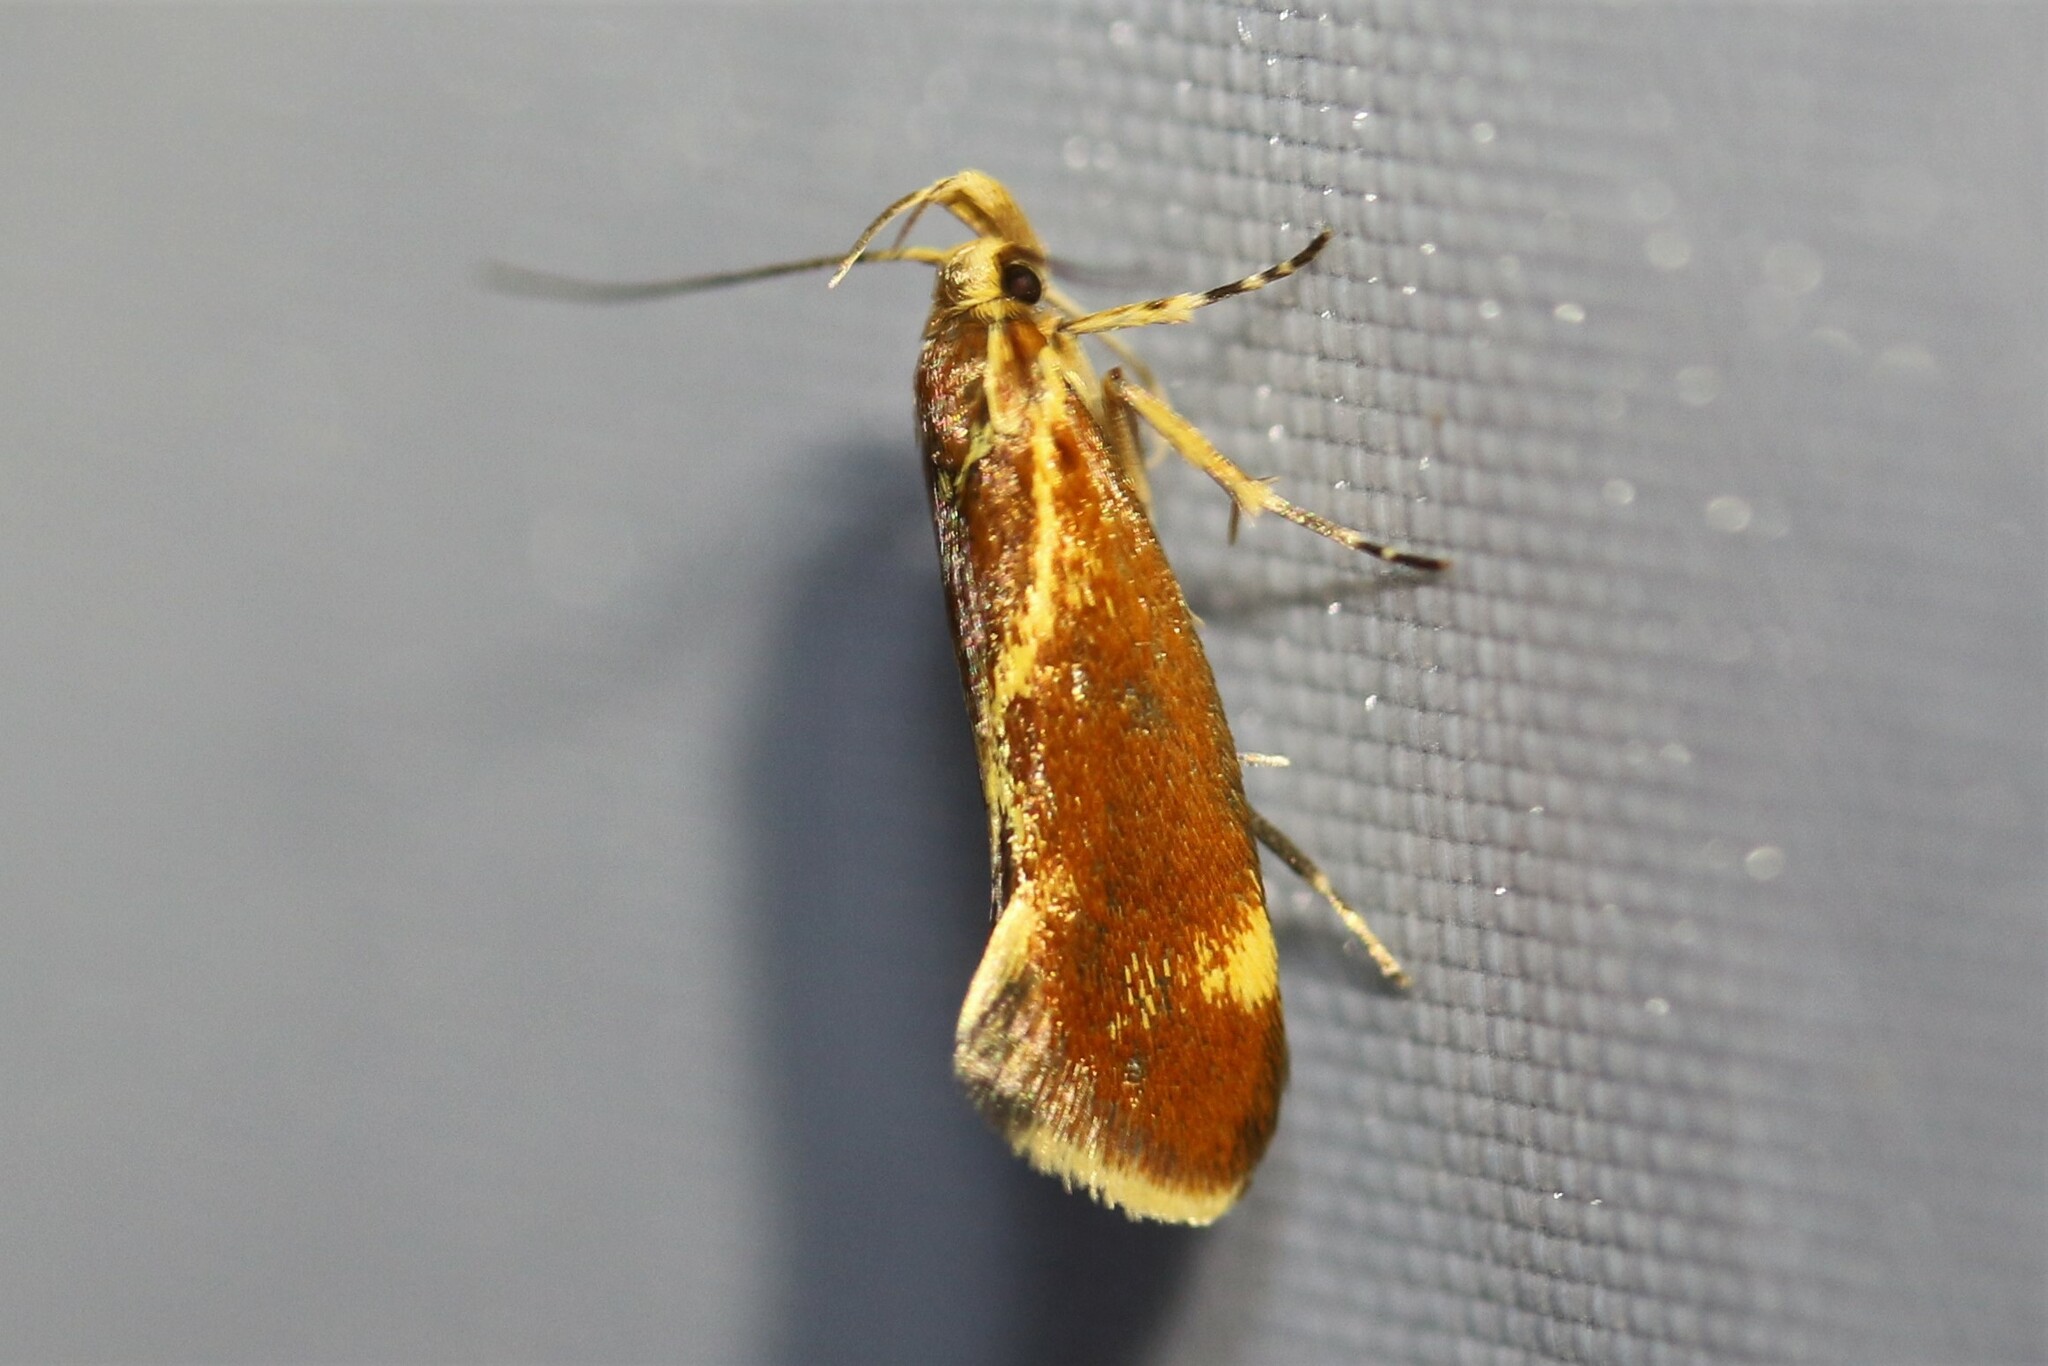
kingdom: Animalia
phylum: Arthropoda
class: Insecta
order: Lepidoptera
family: Oecophoridae
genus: Borkhausenia
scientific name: Borkhausenia italica
